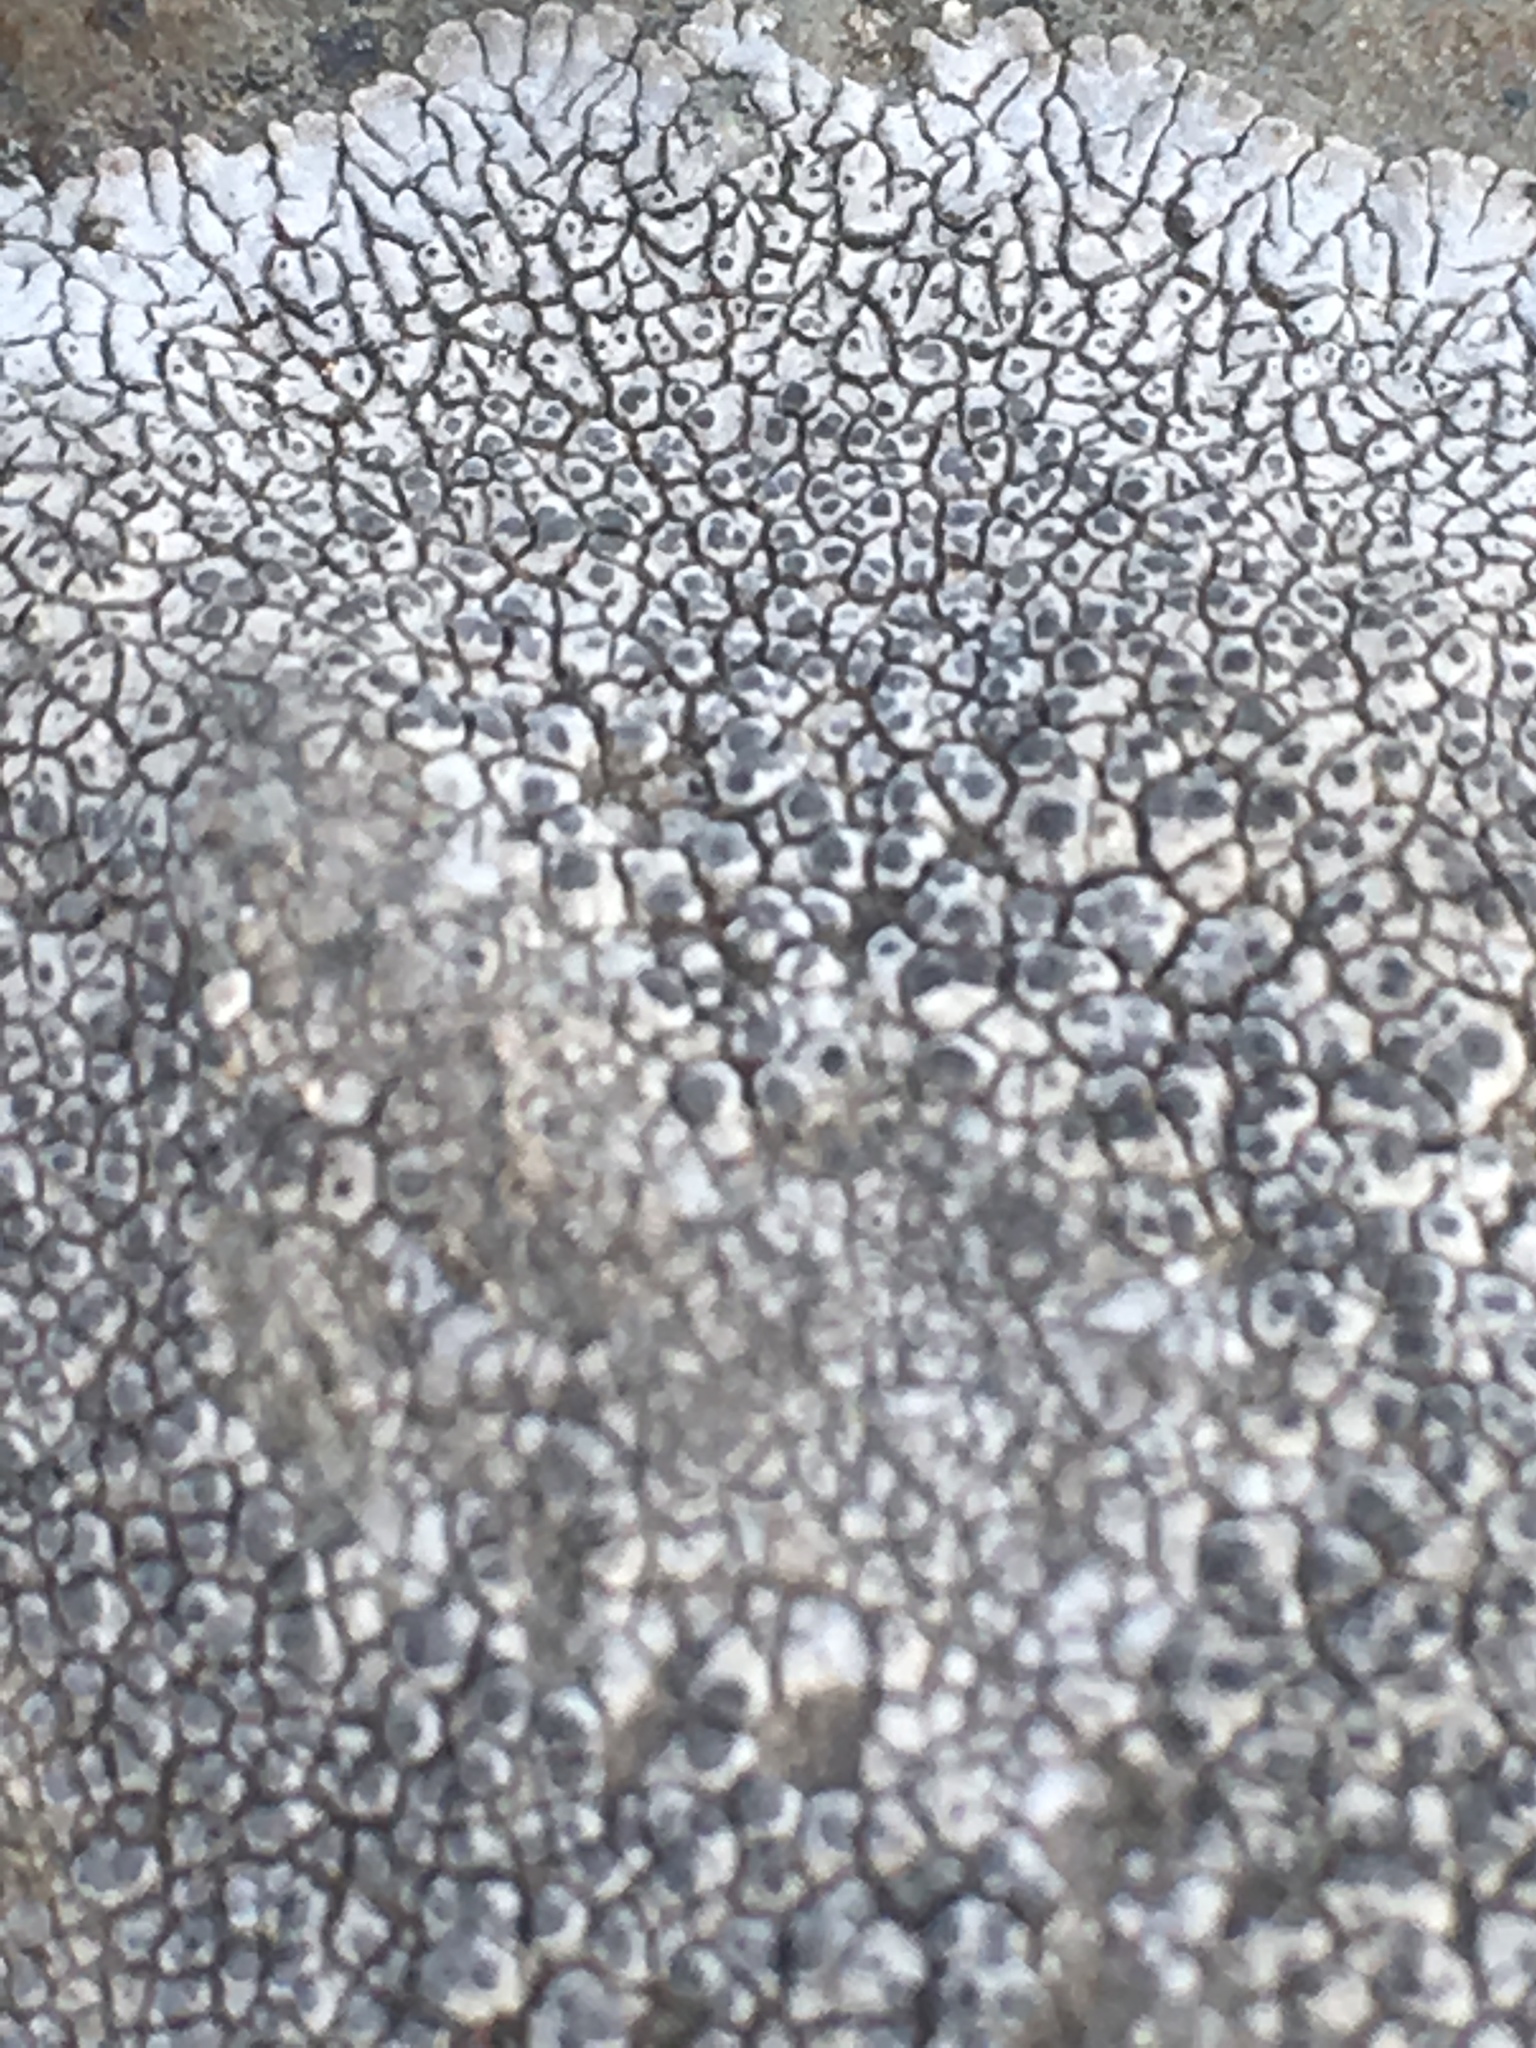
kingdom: Fungi
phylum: Ascomycota
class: Lecanoromycetes
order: Caliciales
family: Caliciaceae
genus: Dimelaena
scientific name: Dimelaena radiata
